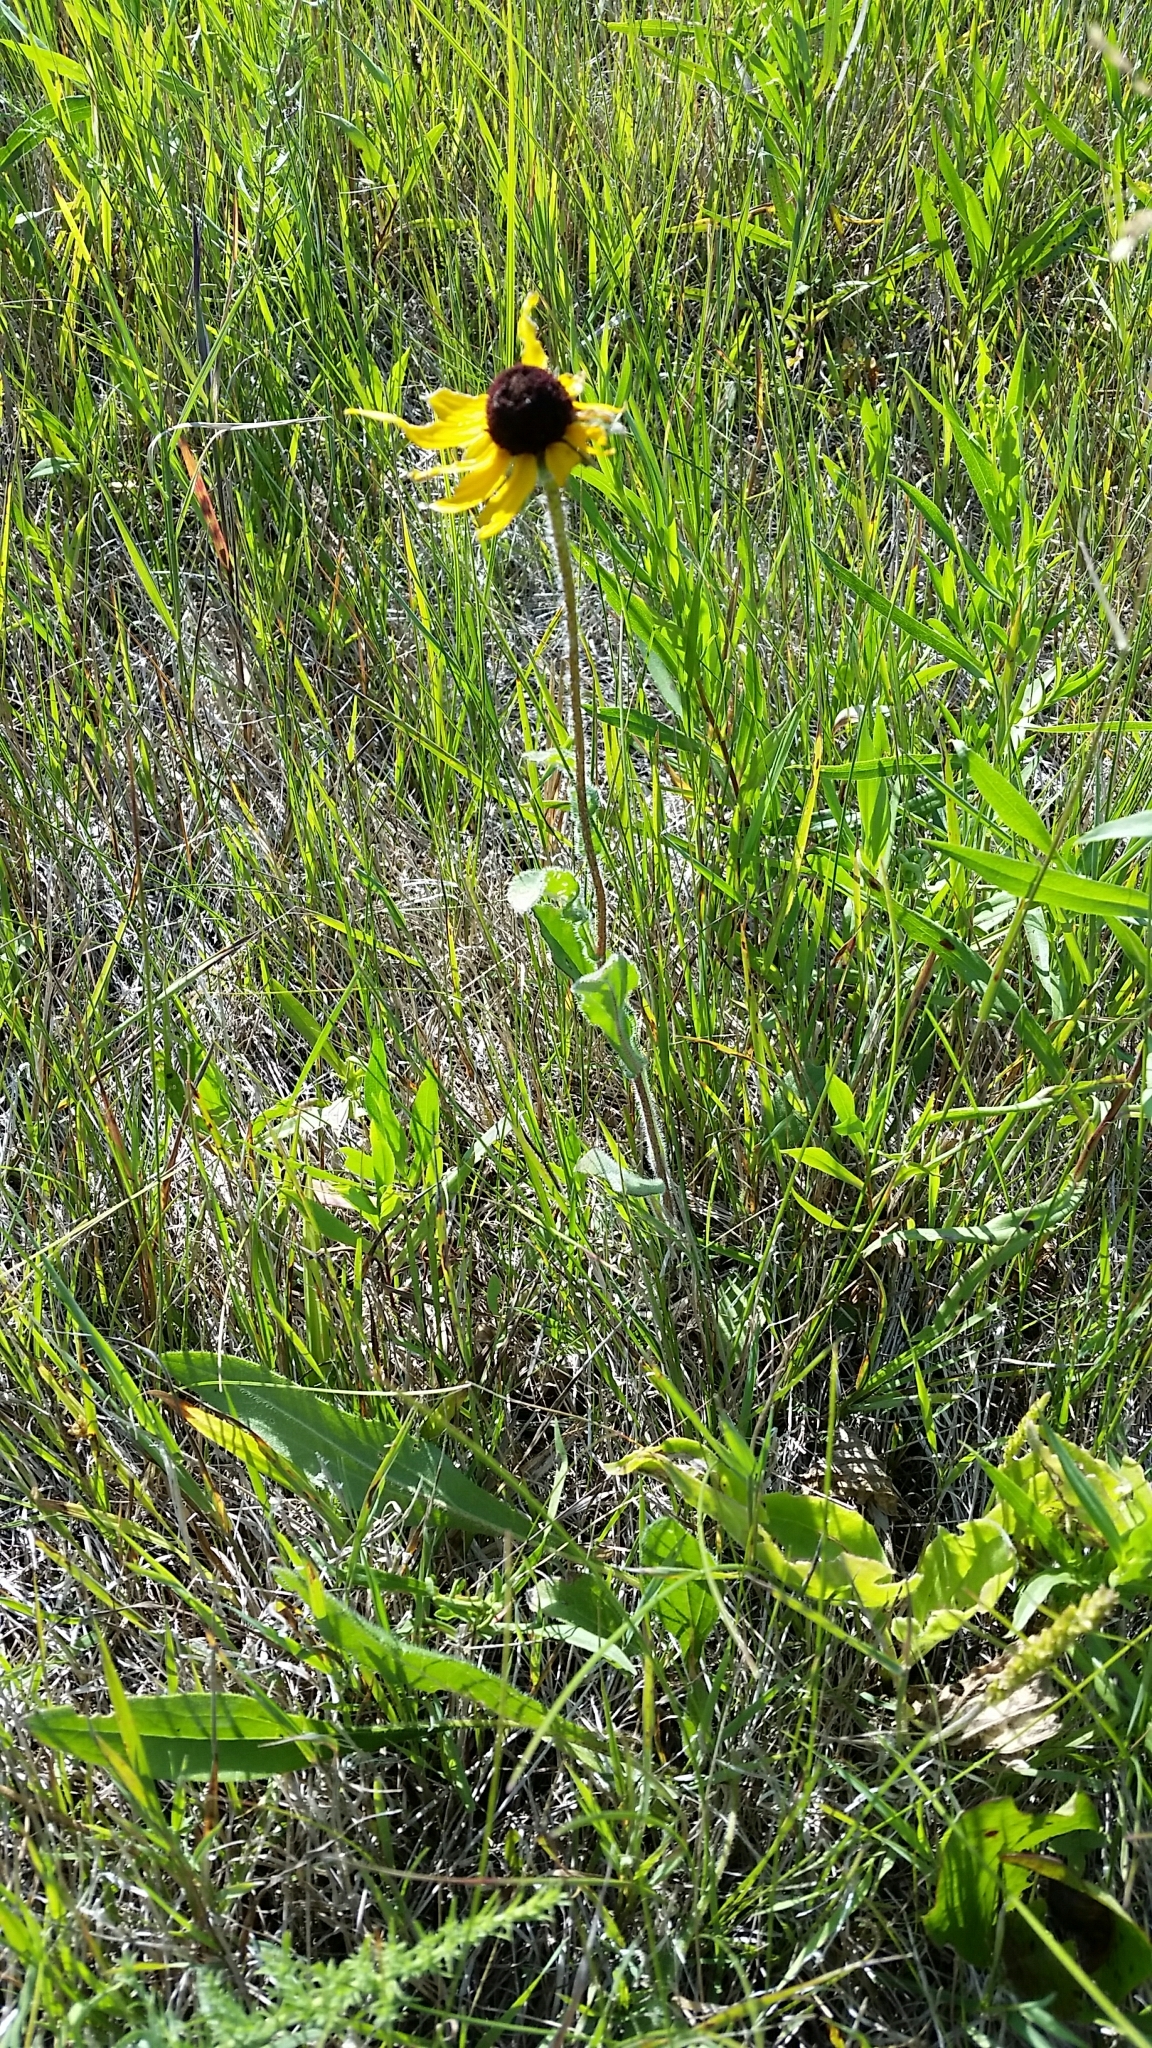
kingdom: Plantae
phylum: Tracheophyta
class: Magnoliopsida
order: Asterales
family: Asteraceae
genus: Rudbeckia
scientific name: Rudbeckia hirta
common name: Black-eyed-susan
